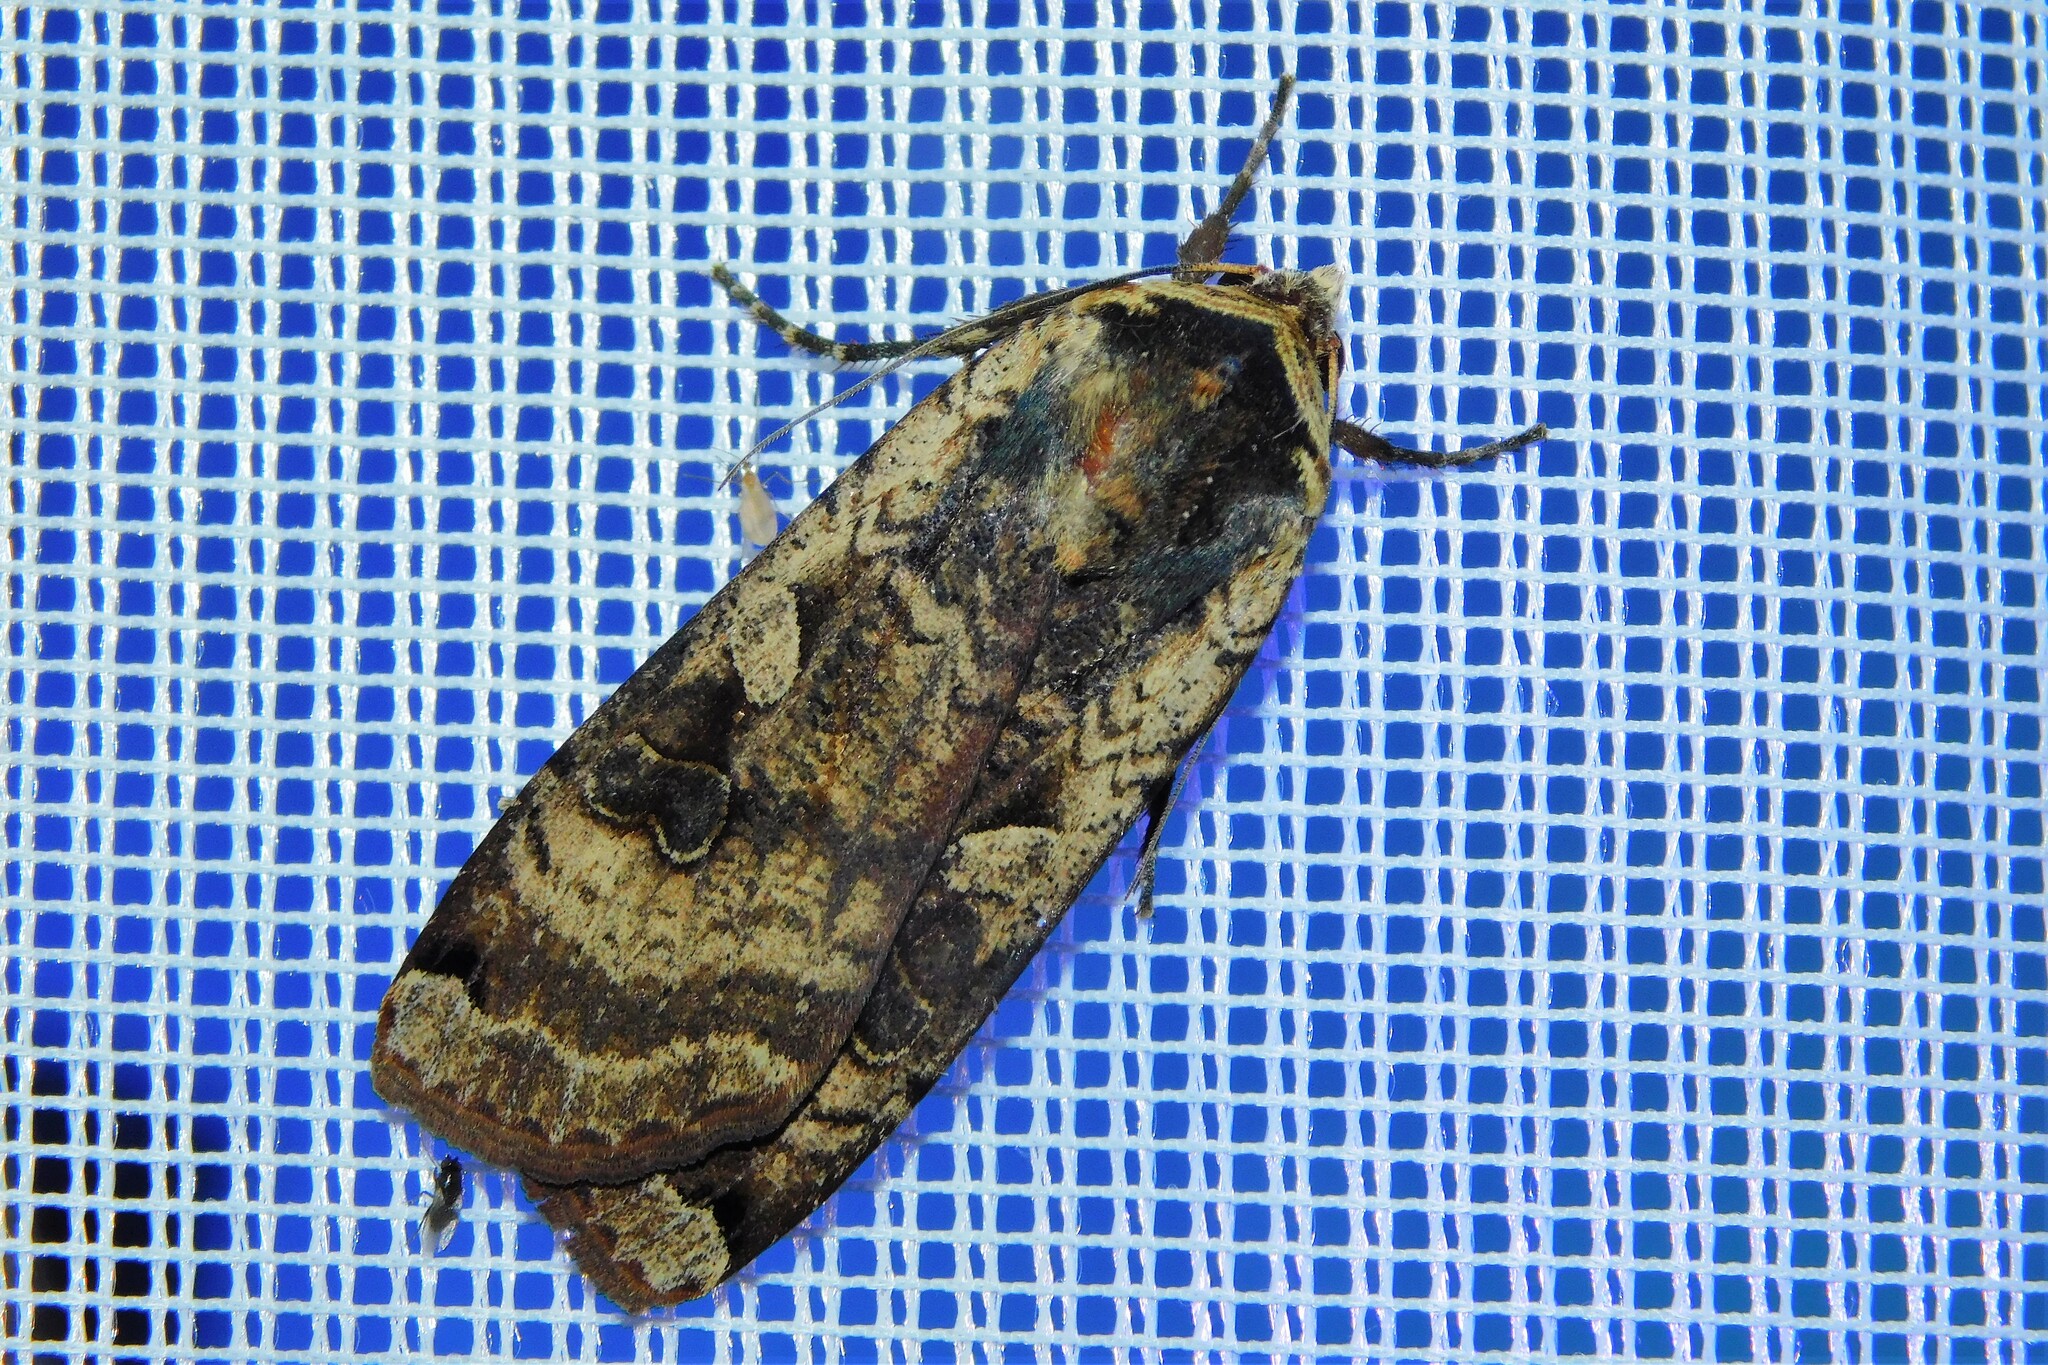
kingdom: Animalia
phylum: Arthropoda
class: Insecta
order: Lepidoptera
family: Noctuidae
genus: Noctua
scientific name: Noctua pronuba
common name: Large yellow underwing
